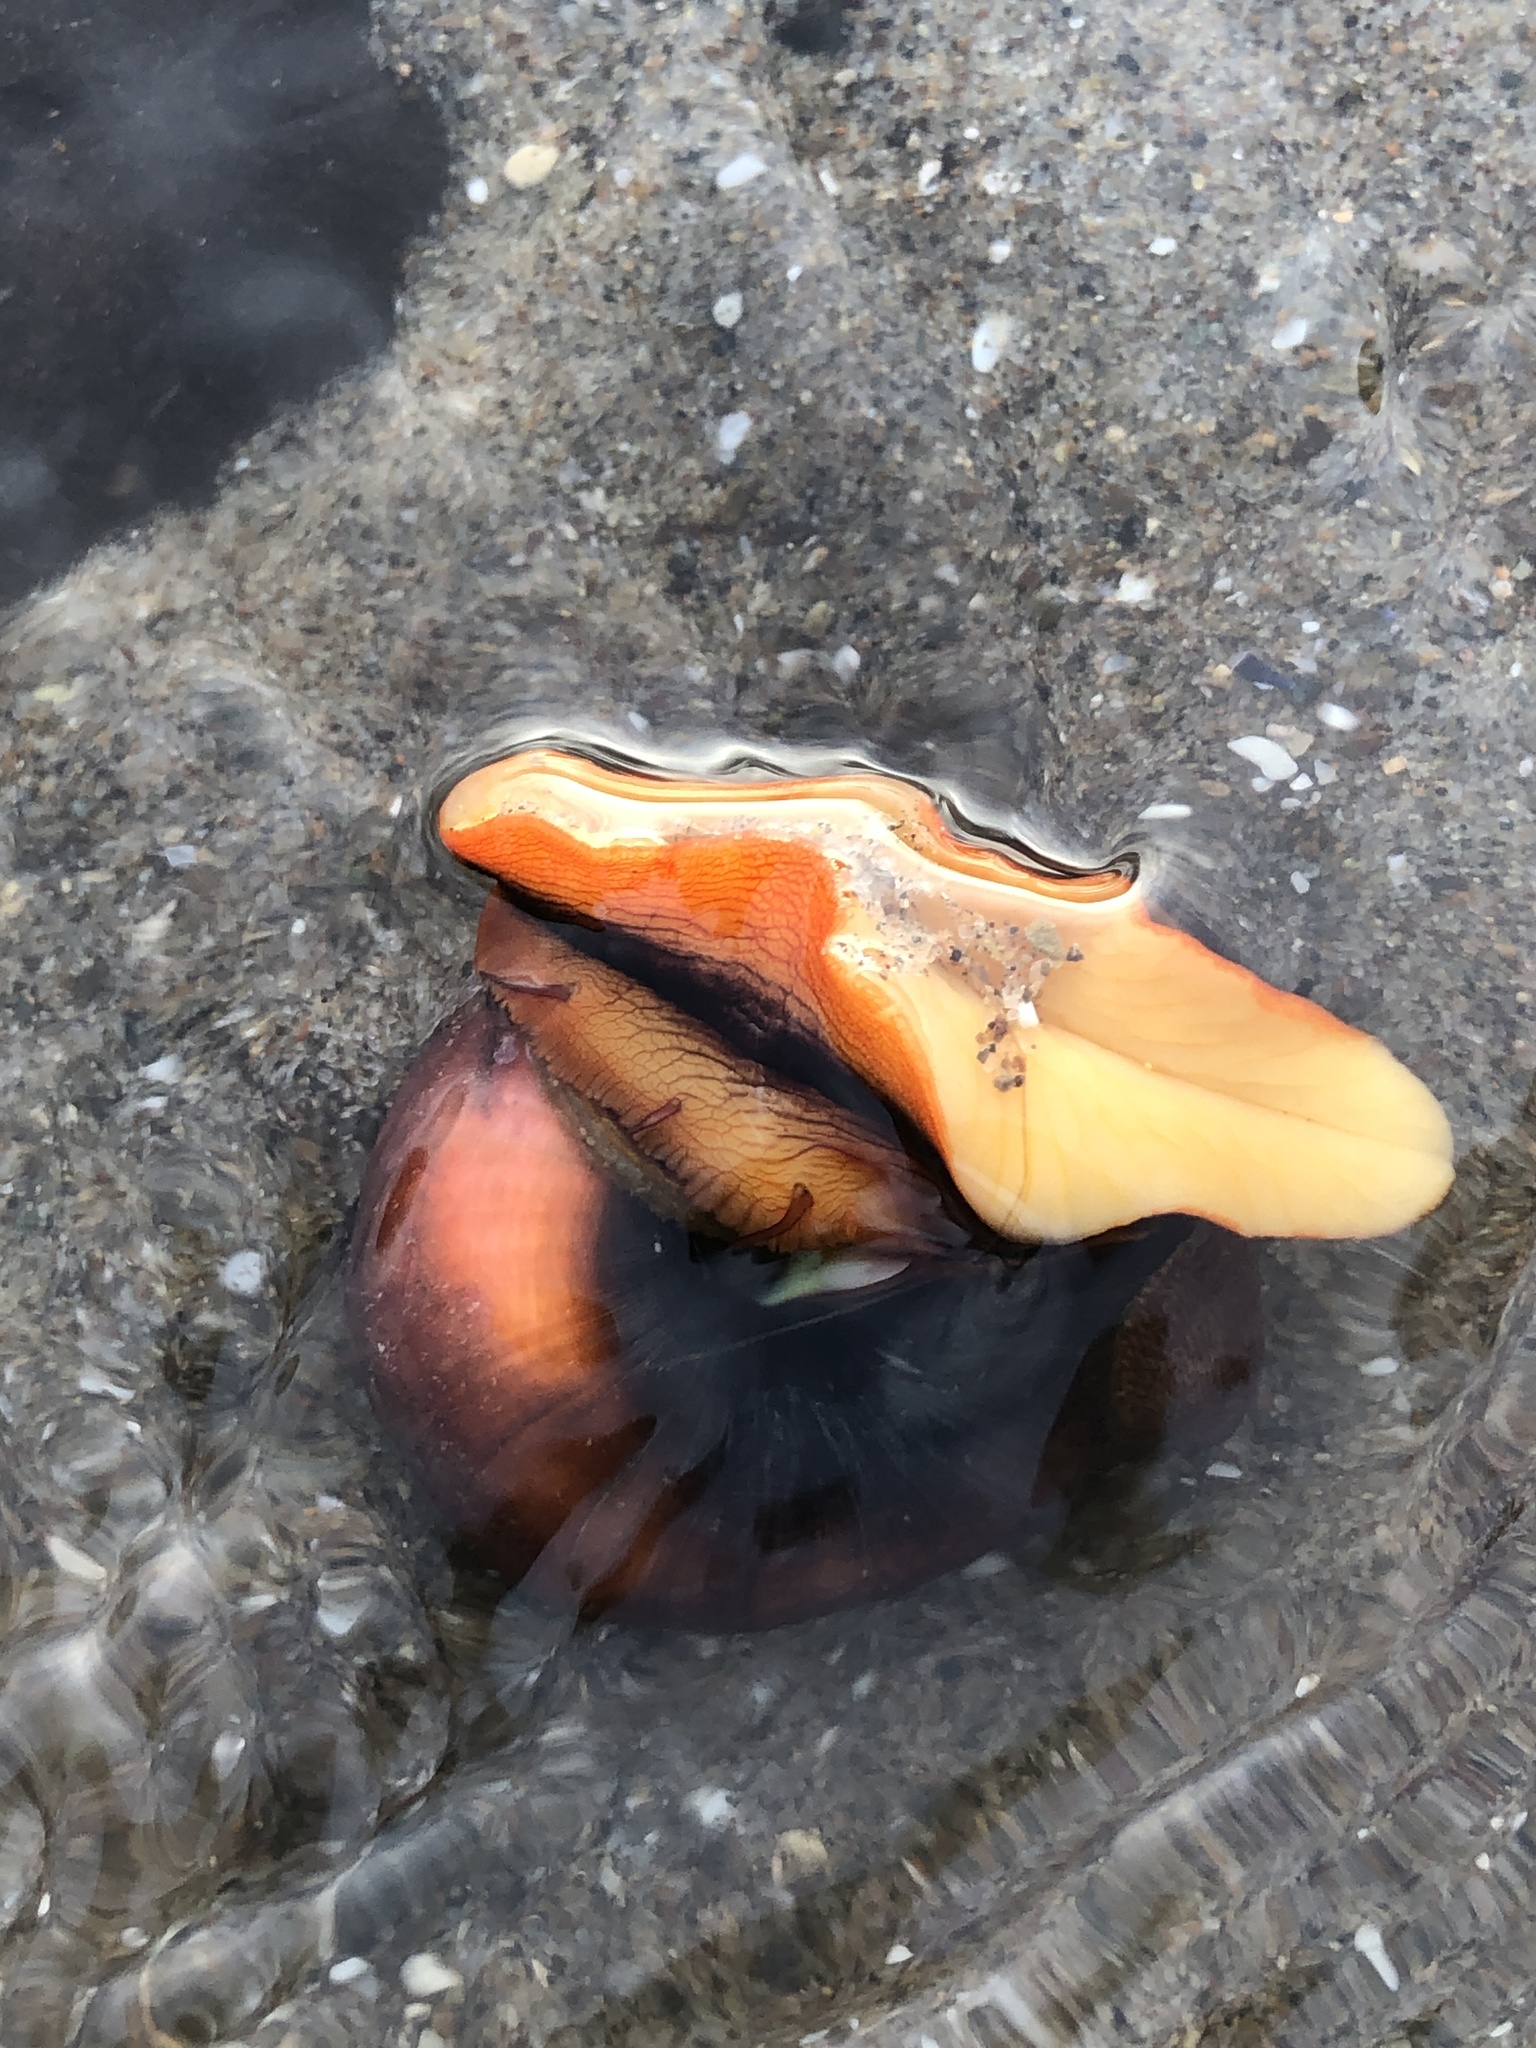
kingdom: Animalia
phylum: Mollusca
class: Gastropoda
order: Trochida
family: Tegulidae
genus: Norrisia
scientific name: Norrisia norrisii
